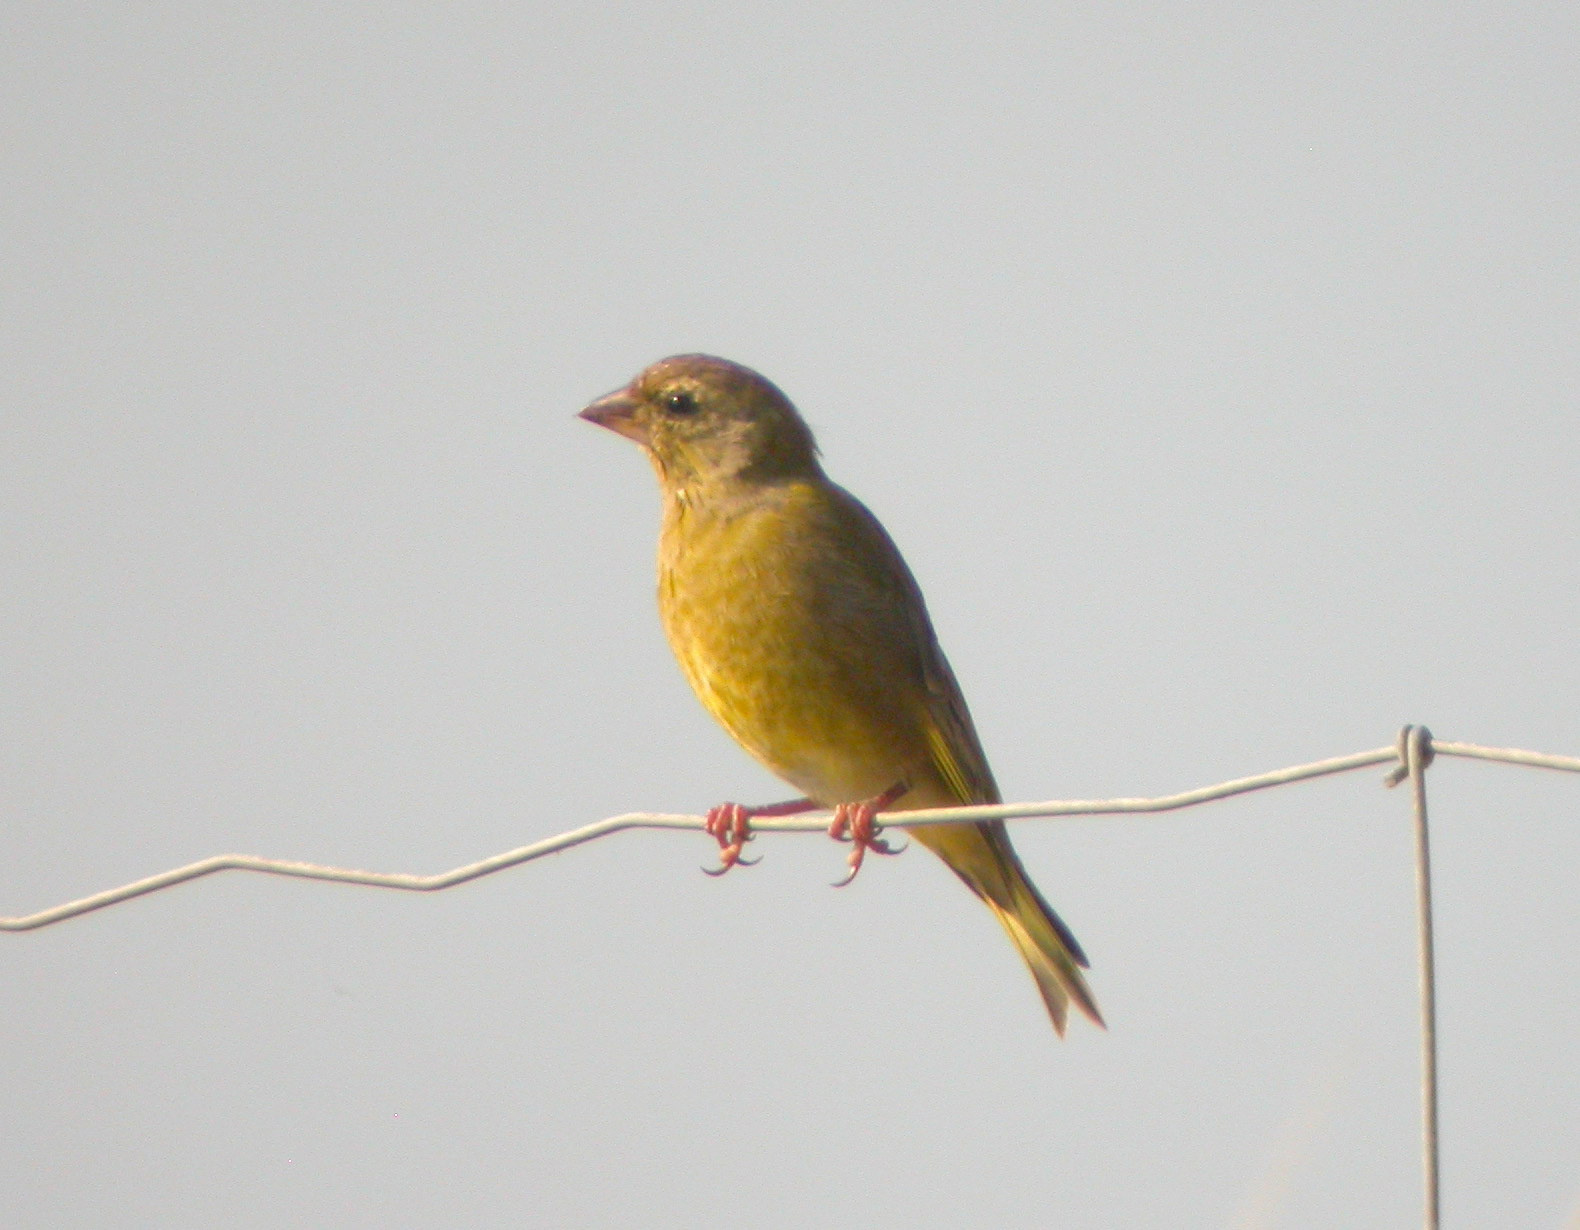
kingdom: Plantae
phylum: Tracheophyta
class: Liliopsida
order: Poales
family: Poaceae
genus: Chloris
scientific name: Chloris chloris
